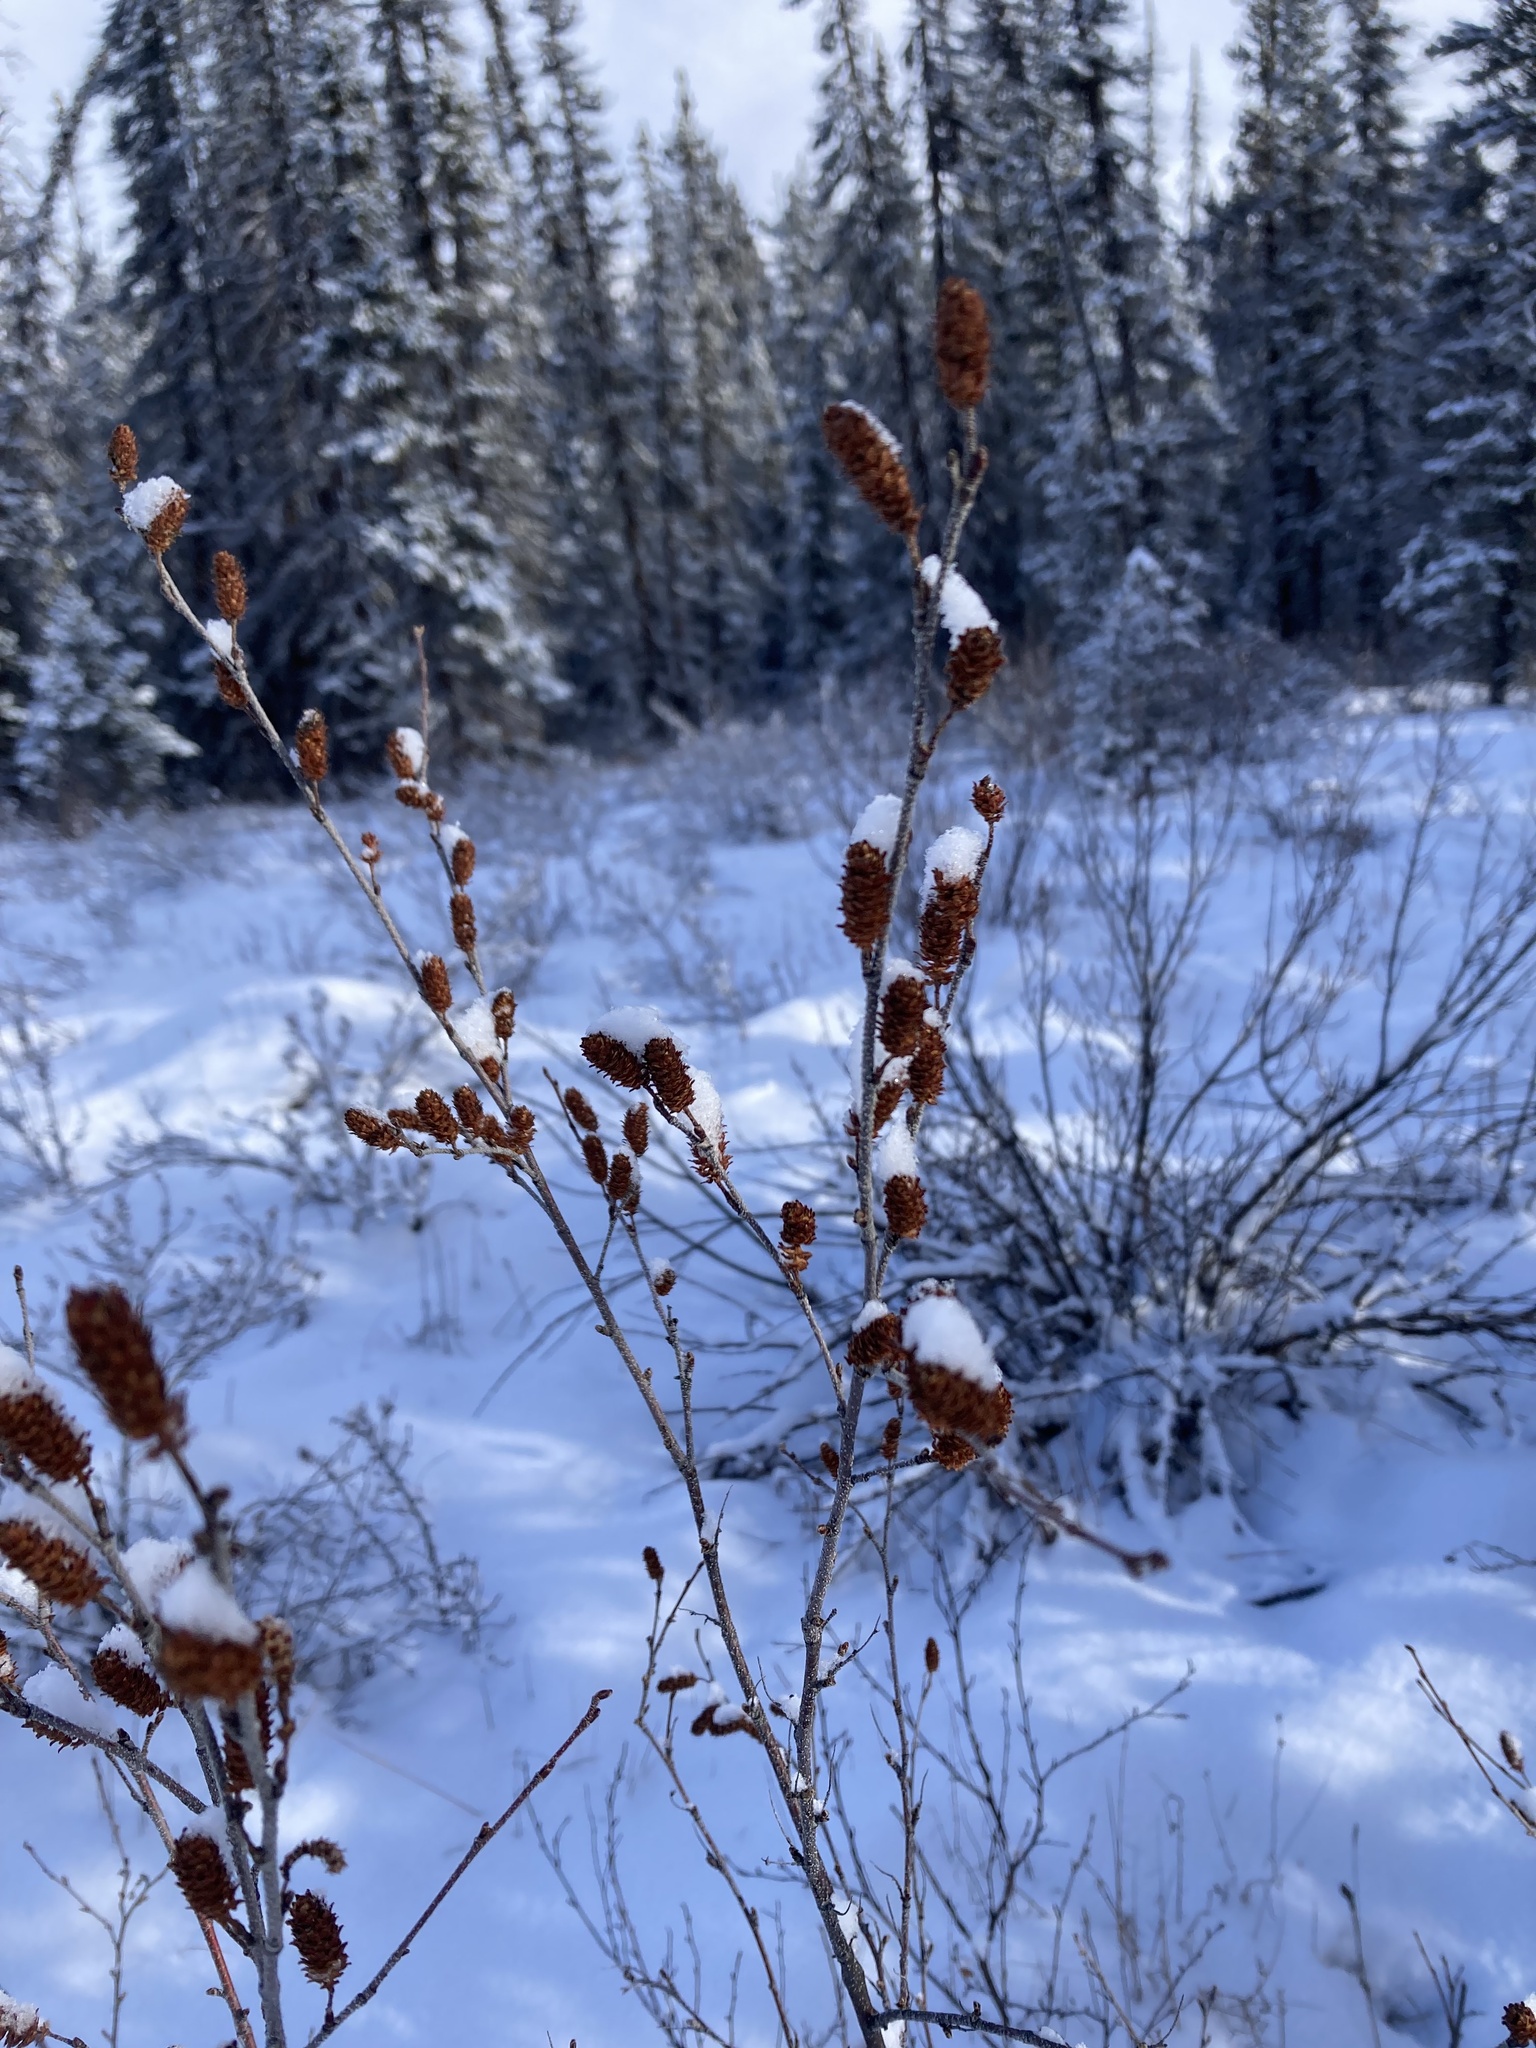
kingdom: Plantae
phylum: Tracheophyta
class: Magnoliopsida
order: Fagales
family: Betulaceae
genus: Betula
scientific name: Betula glandulosa
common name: Dwarf birch
